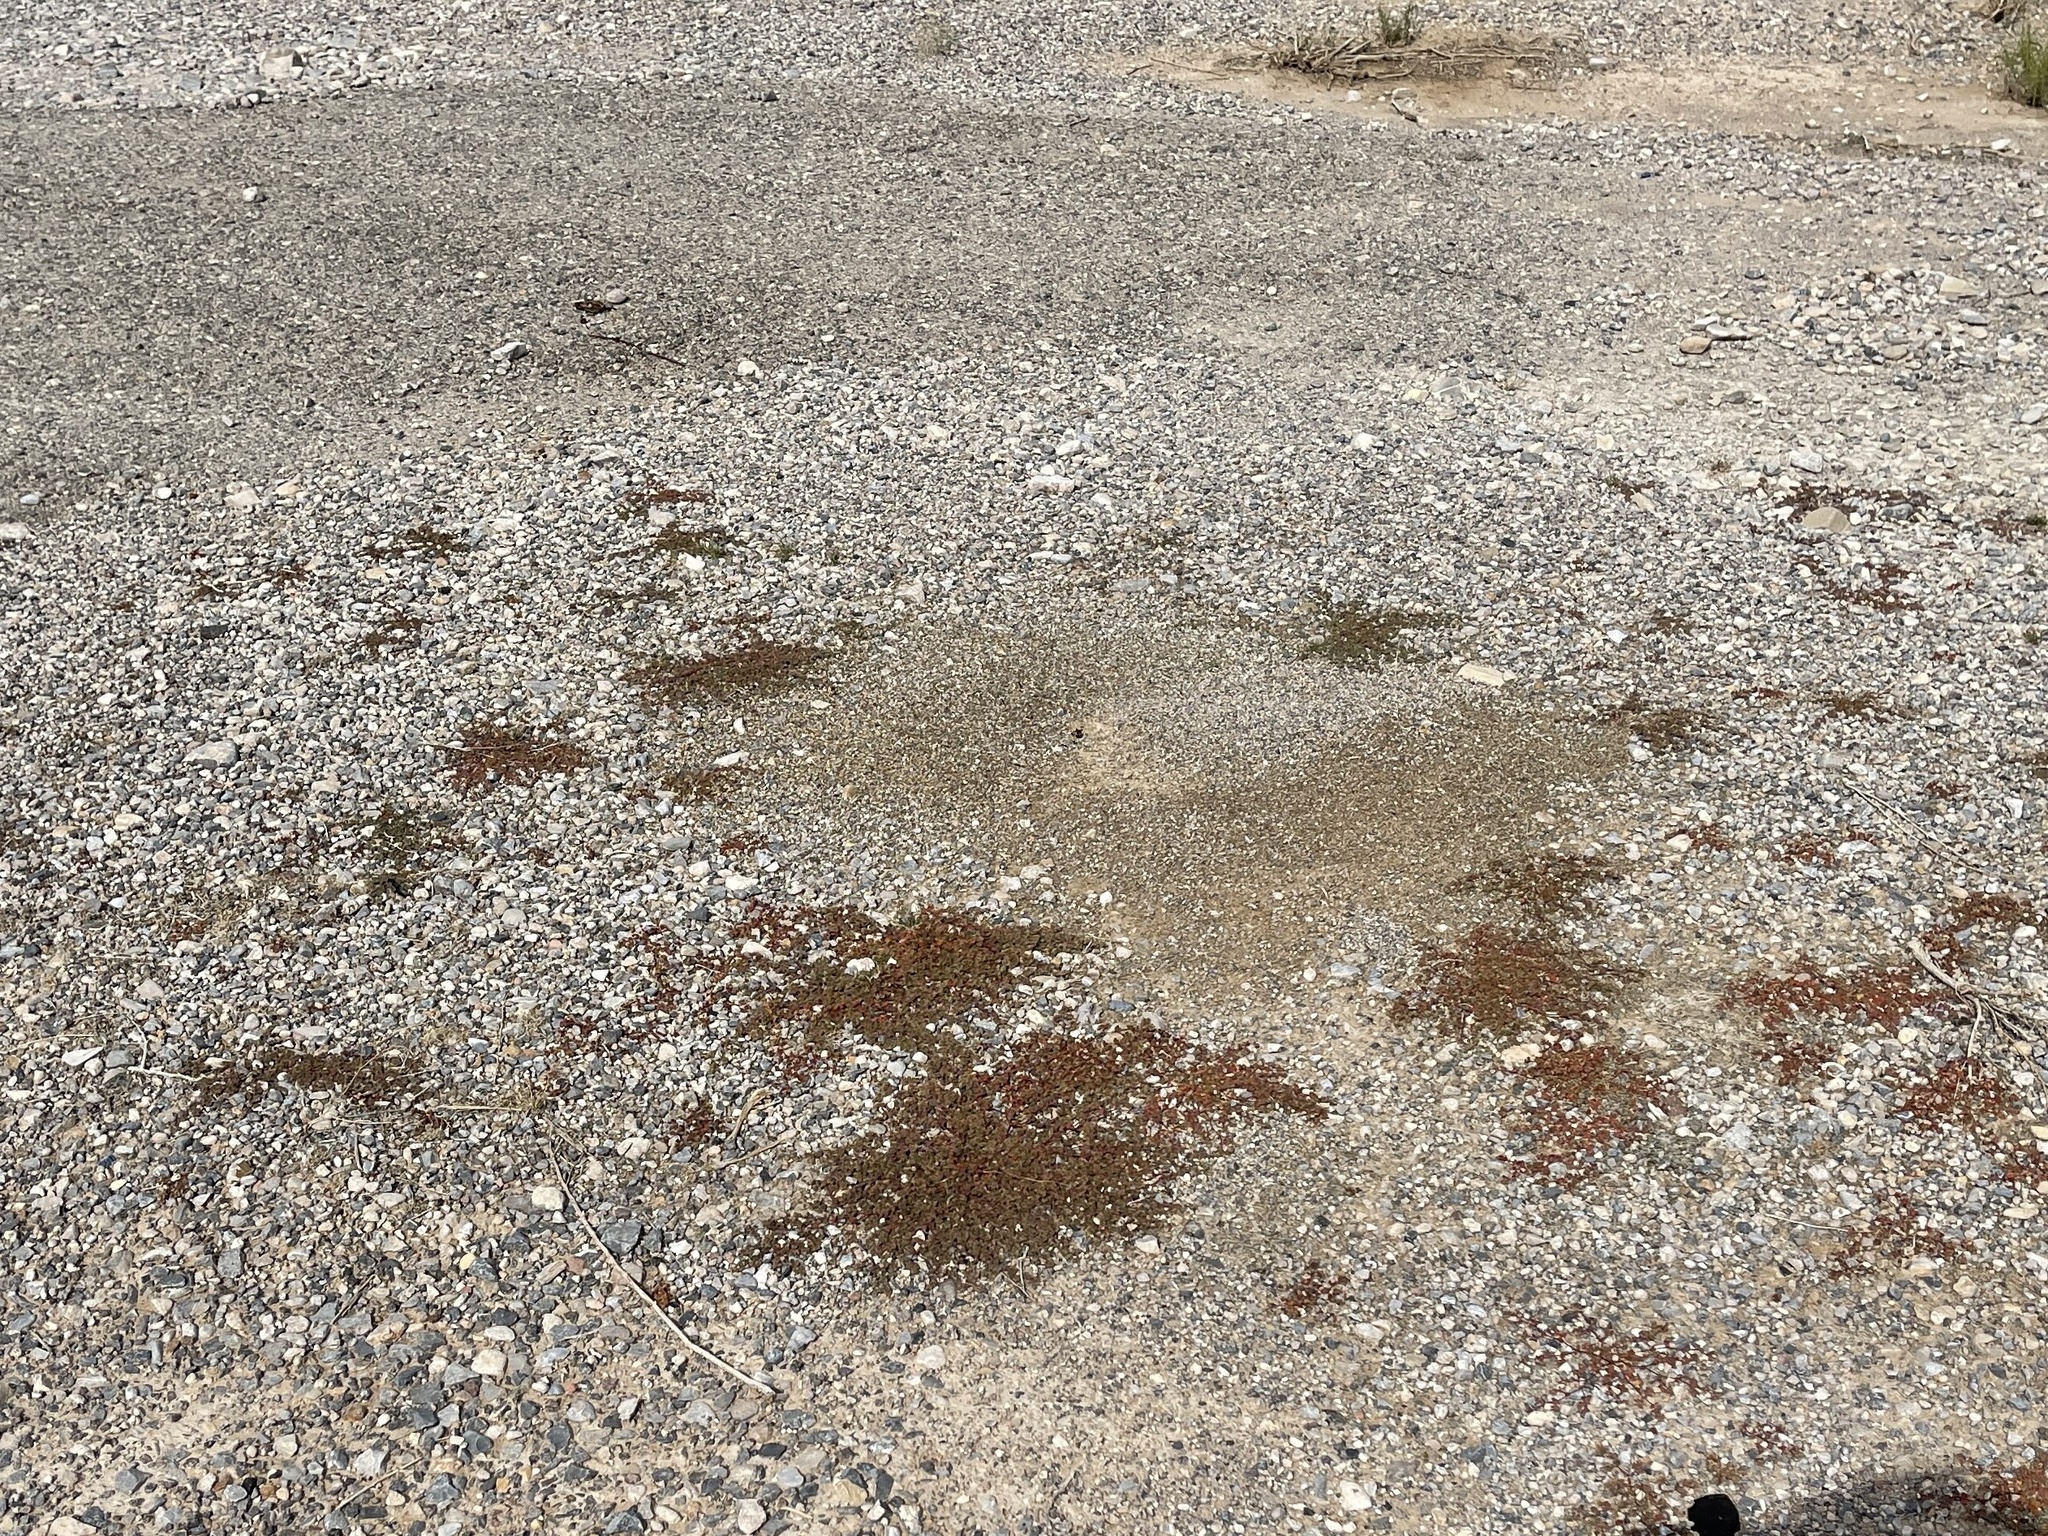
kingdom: Plantae
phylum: Tracheophyta
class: Magnoliopsida
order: Malpighiales
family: Euphorbiaceae
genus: Euphorbia
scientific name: Euphorbia setiloba
